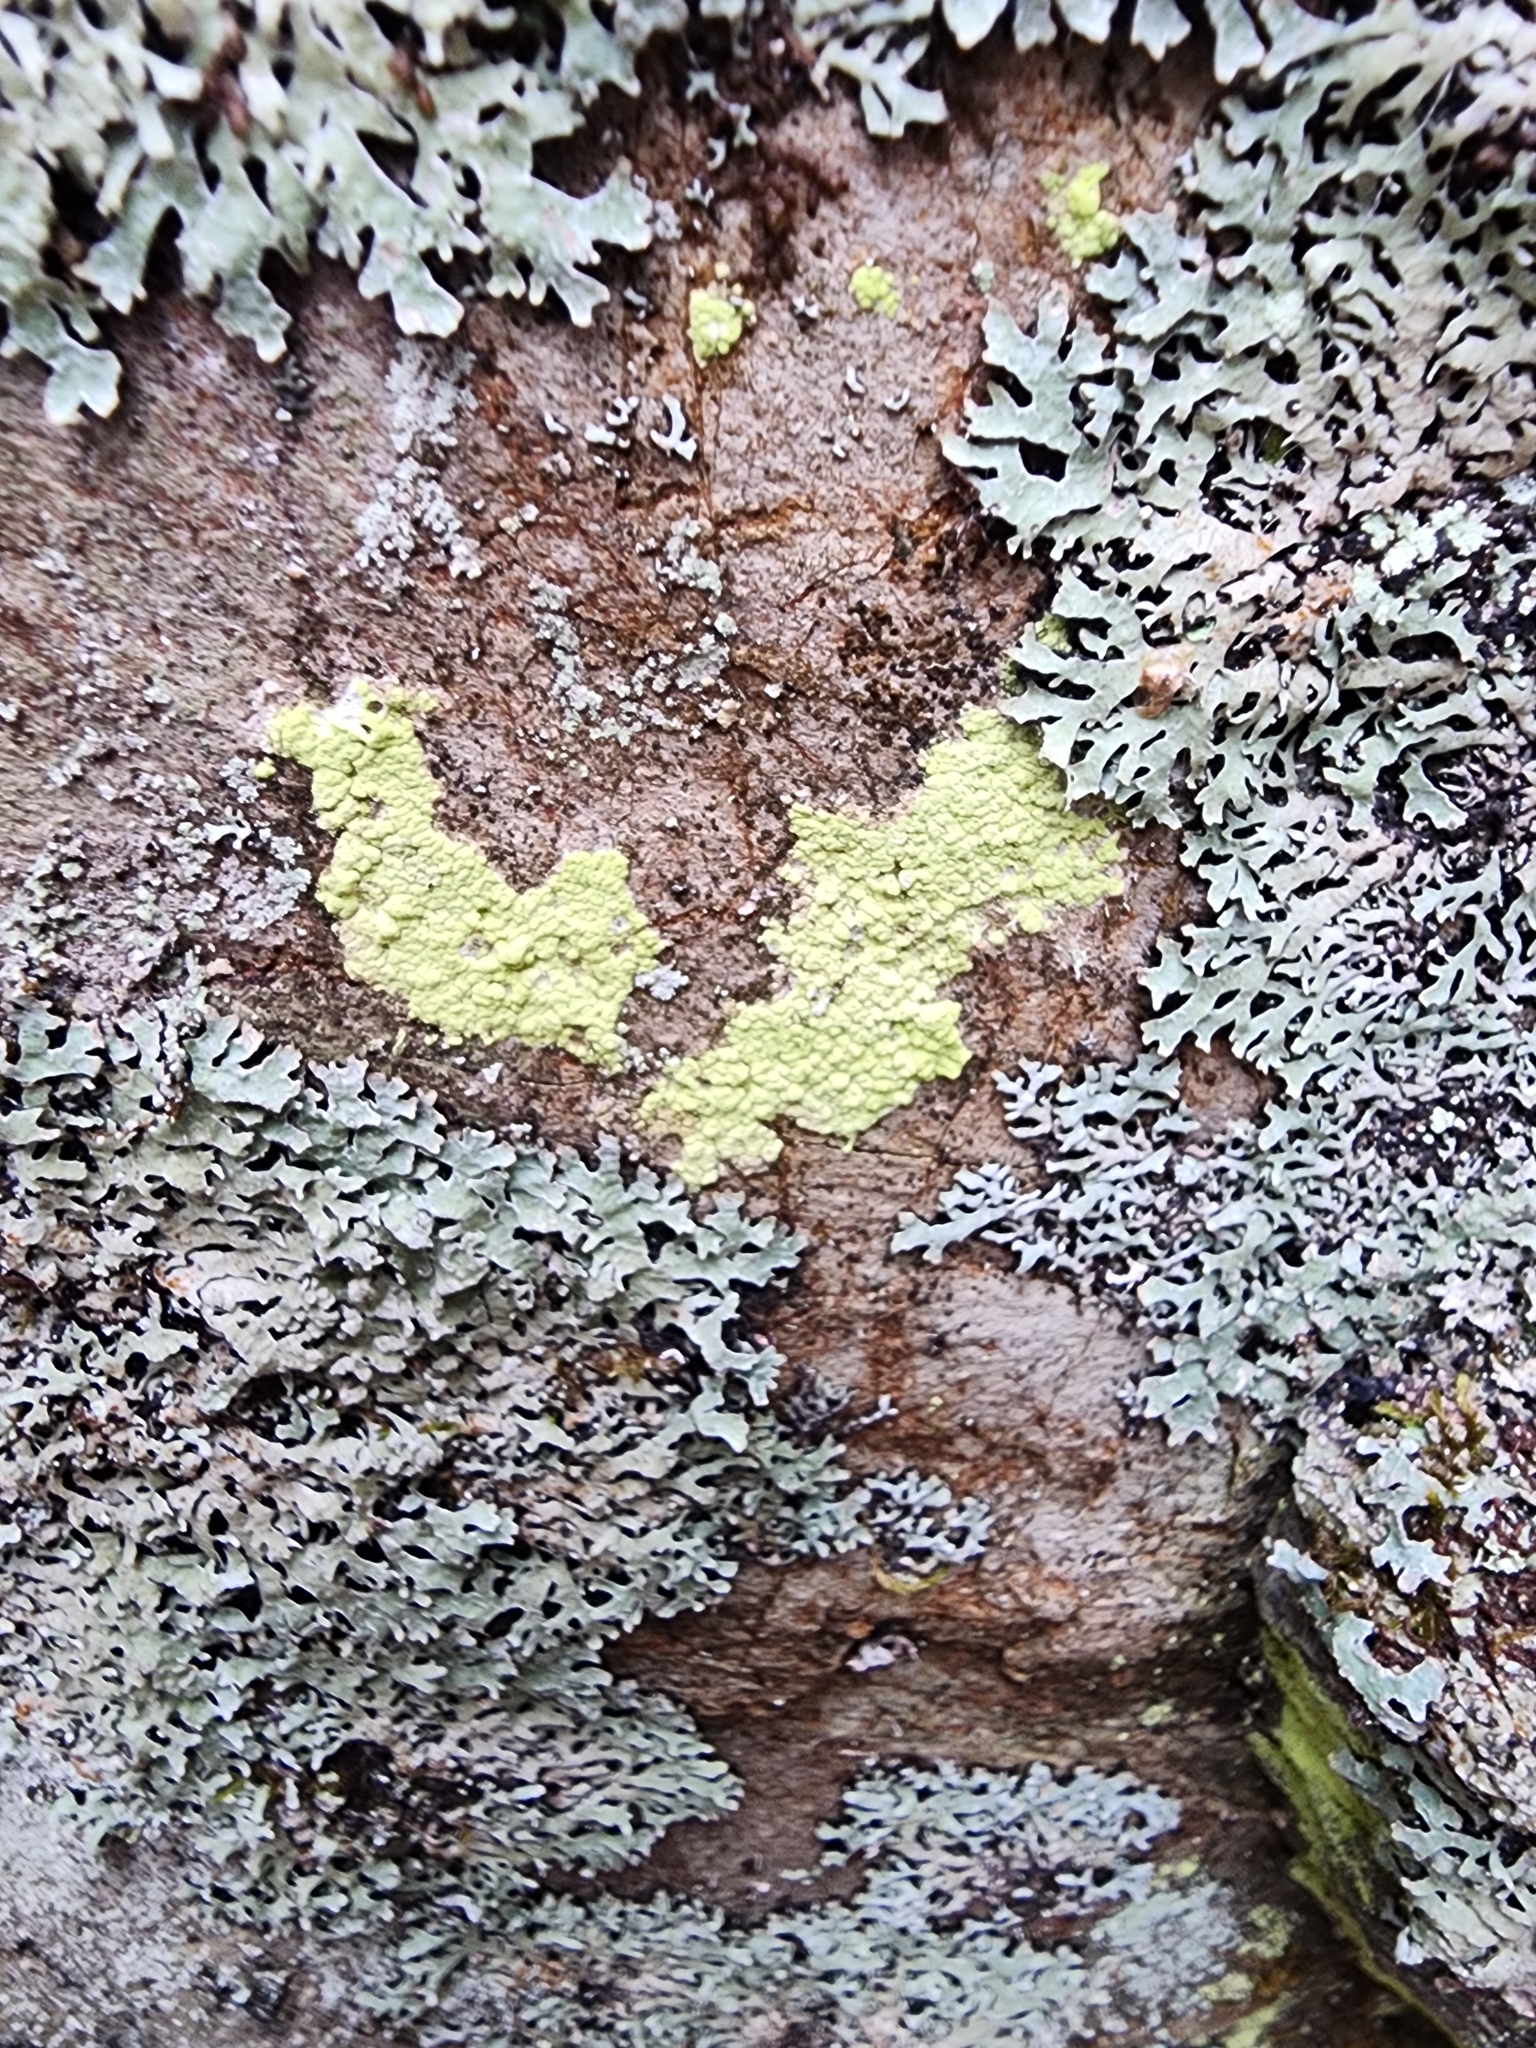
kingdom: Fungi
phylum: Ascomycota
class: Lecanoromycetes
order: Lecanorales
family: Psilolechiaceae
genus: Psilolechia
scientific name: Psilolechia lucida
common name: Sulphur dust lichen
